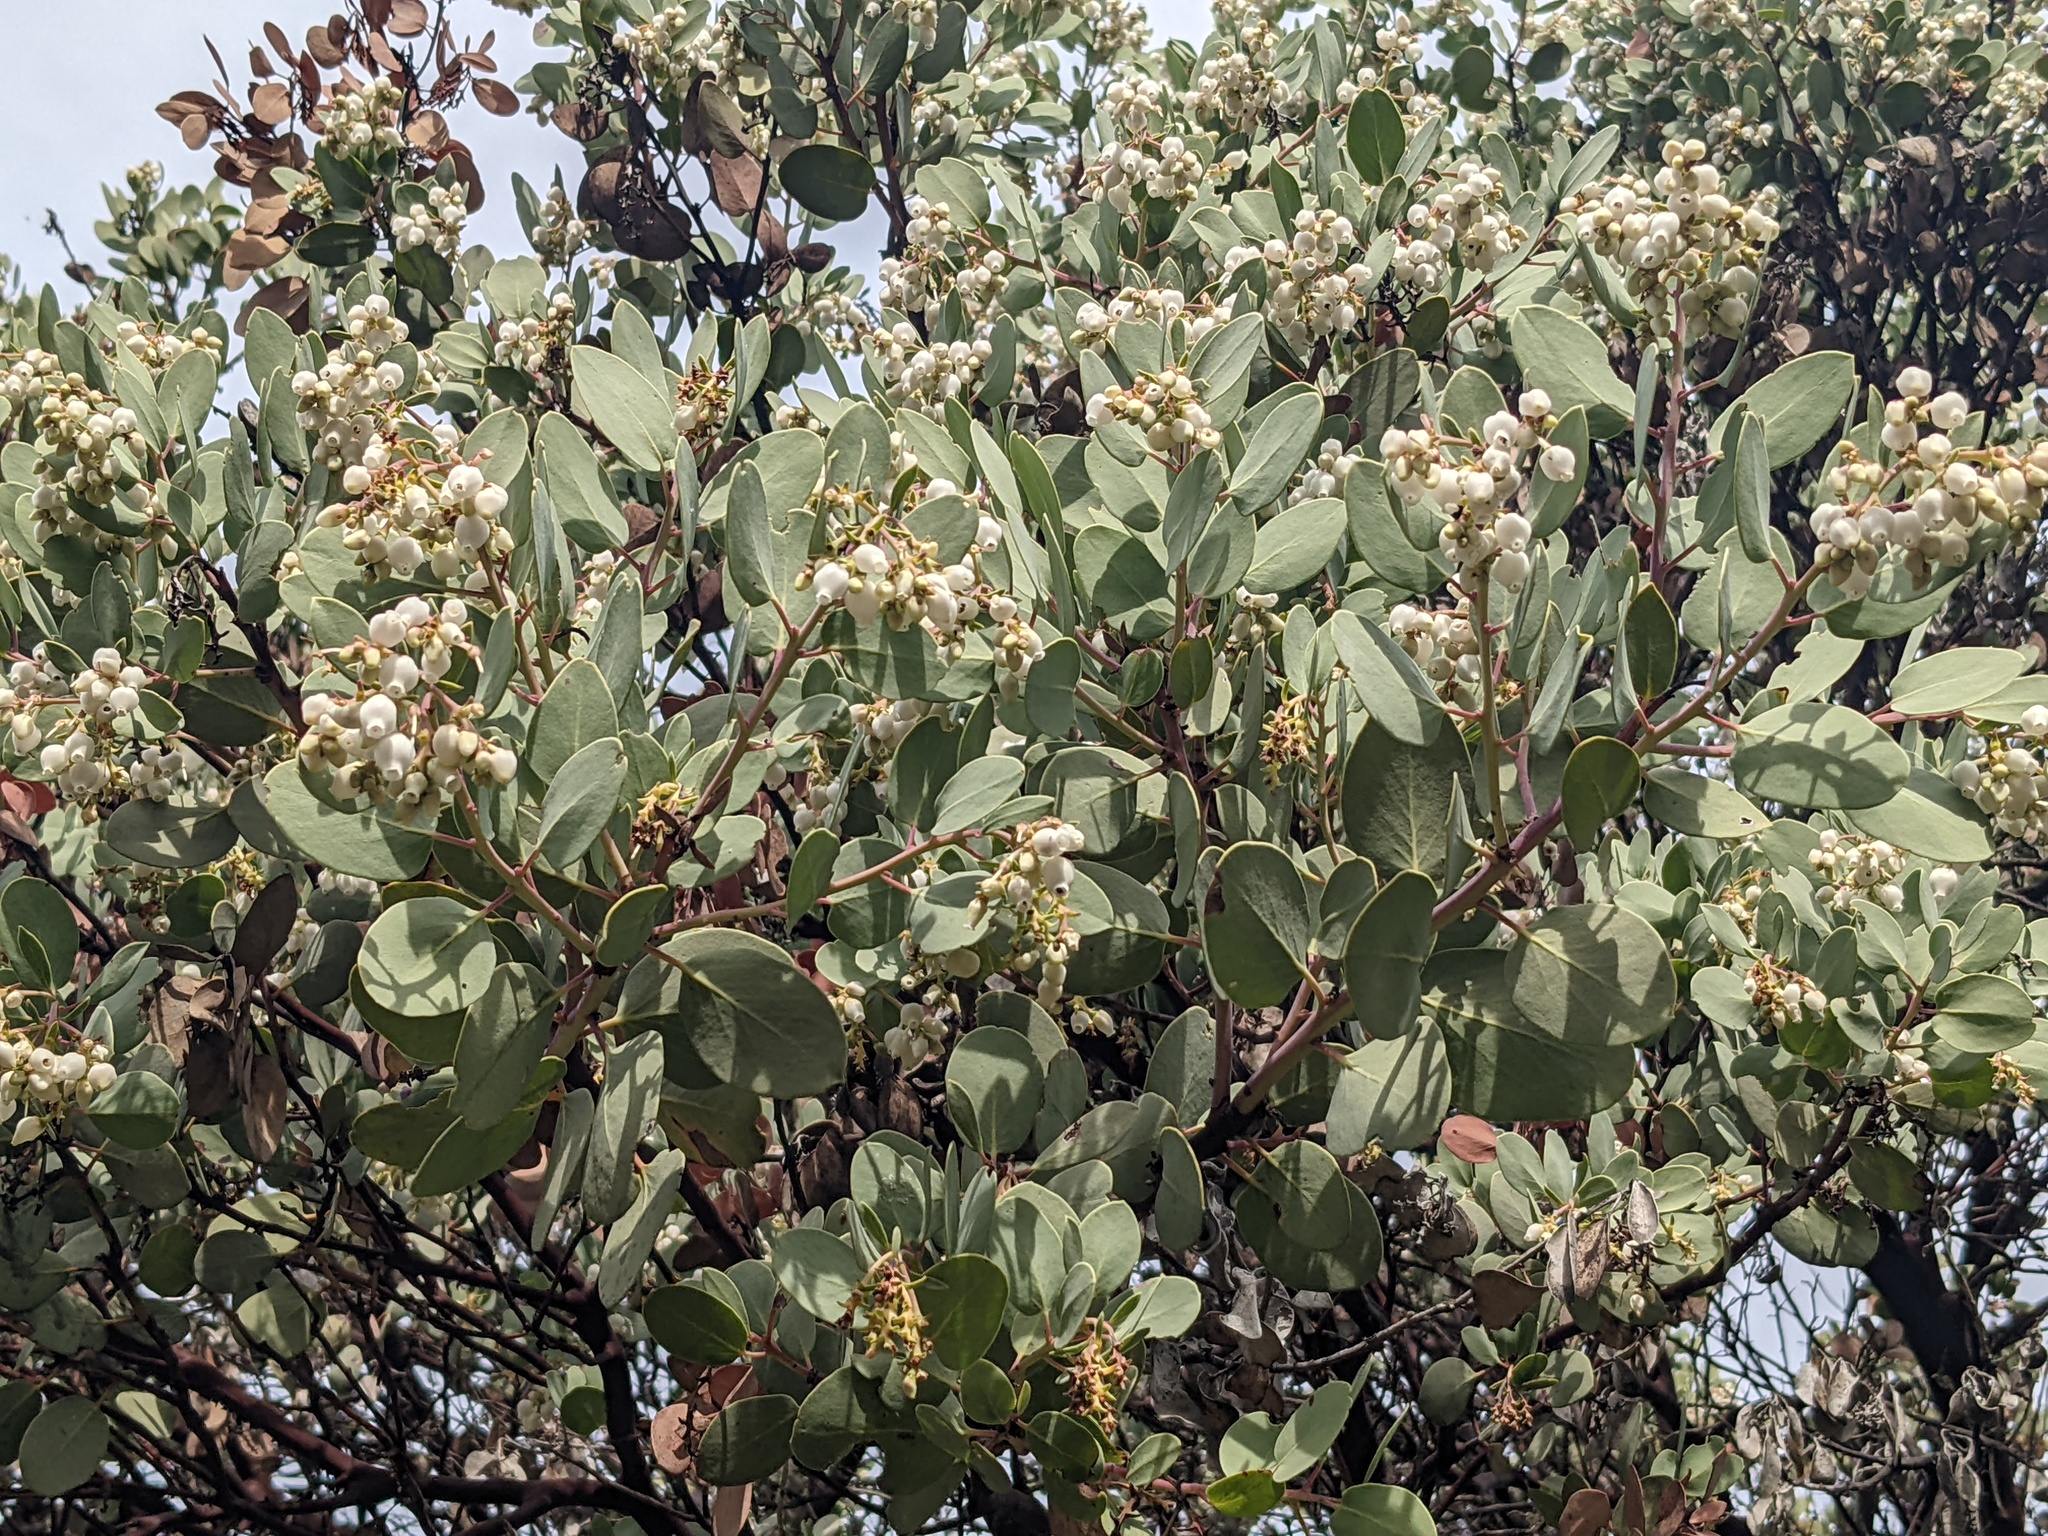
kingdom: Plantae
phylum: Tracheophyta
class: Magnoliopsida
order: Ericales
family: Ericaceae
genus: Arctostaphylos
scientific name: Arctostaphylos glauca
